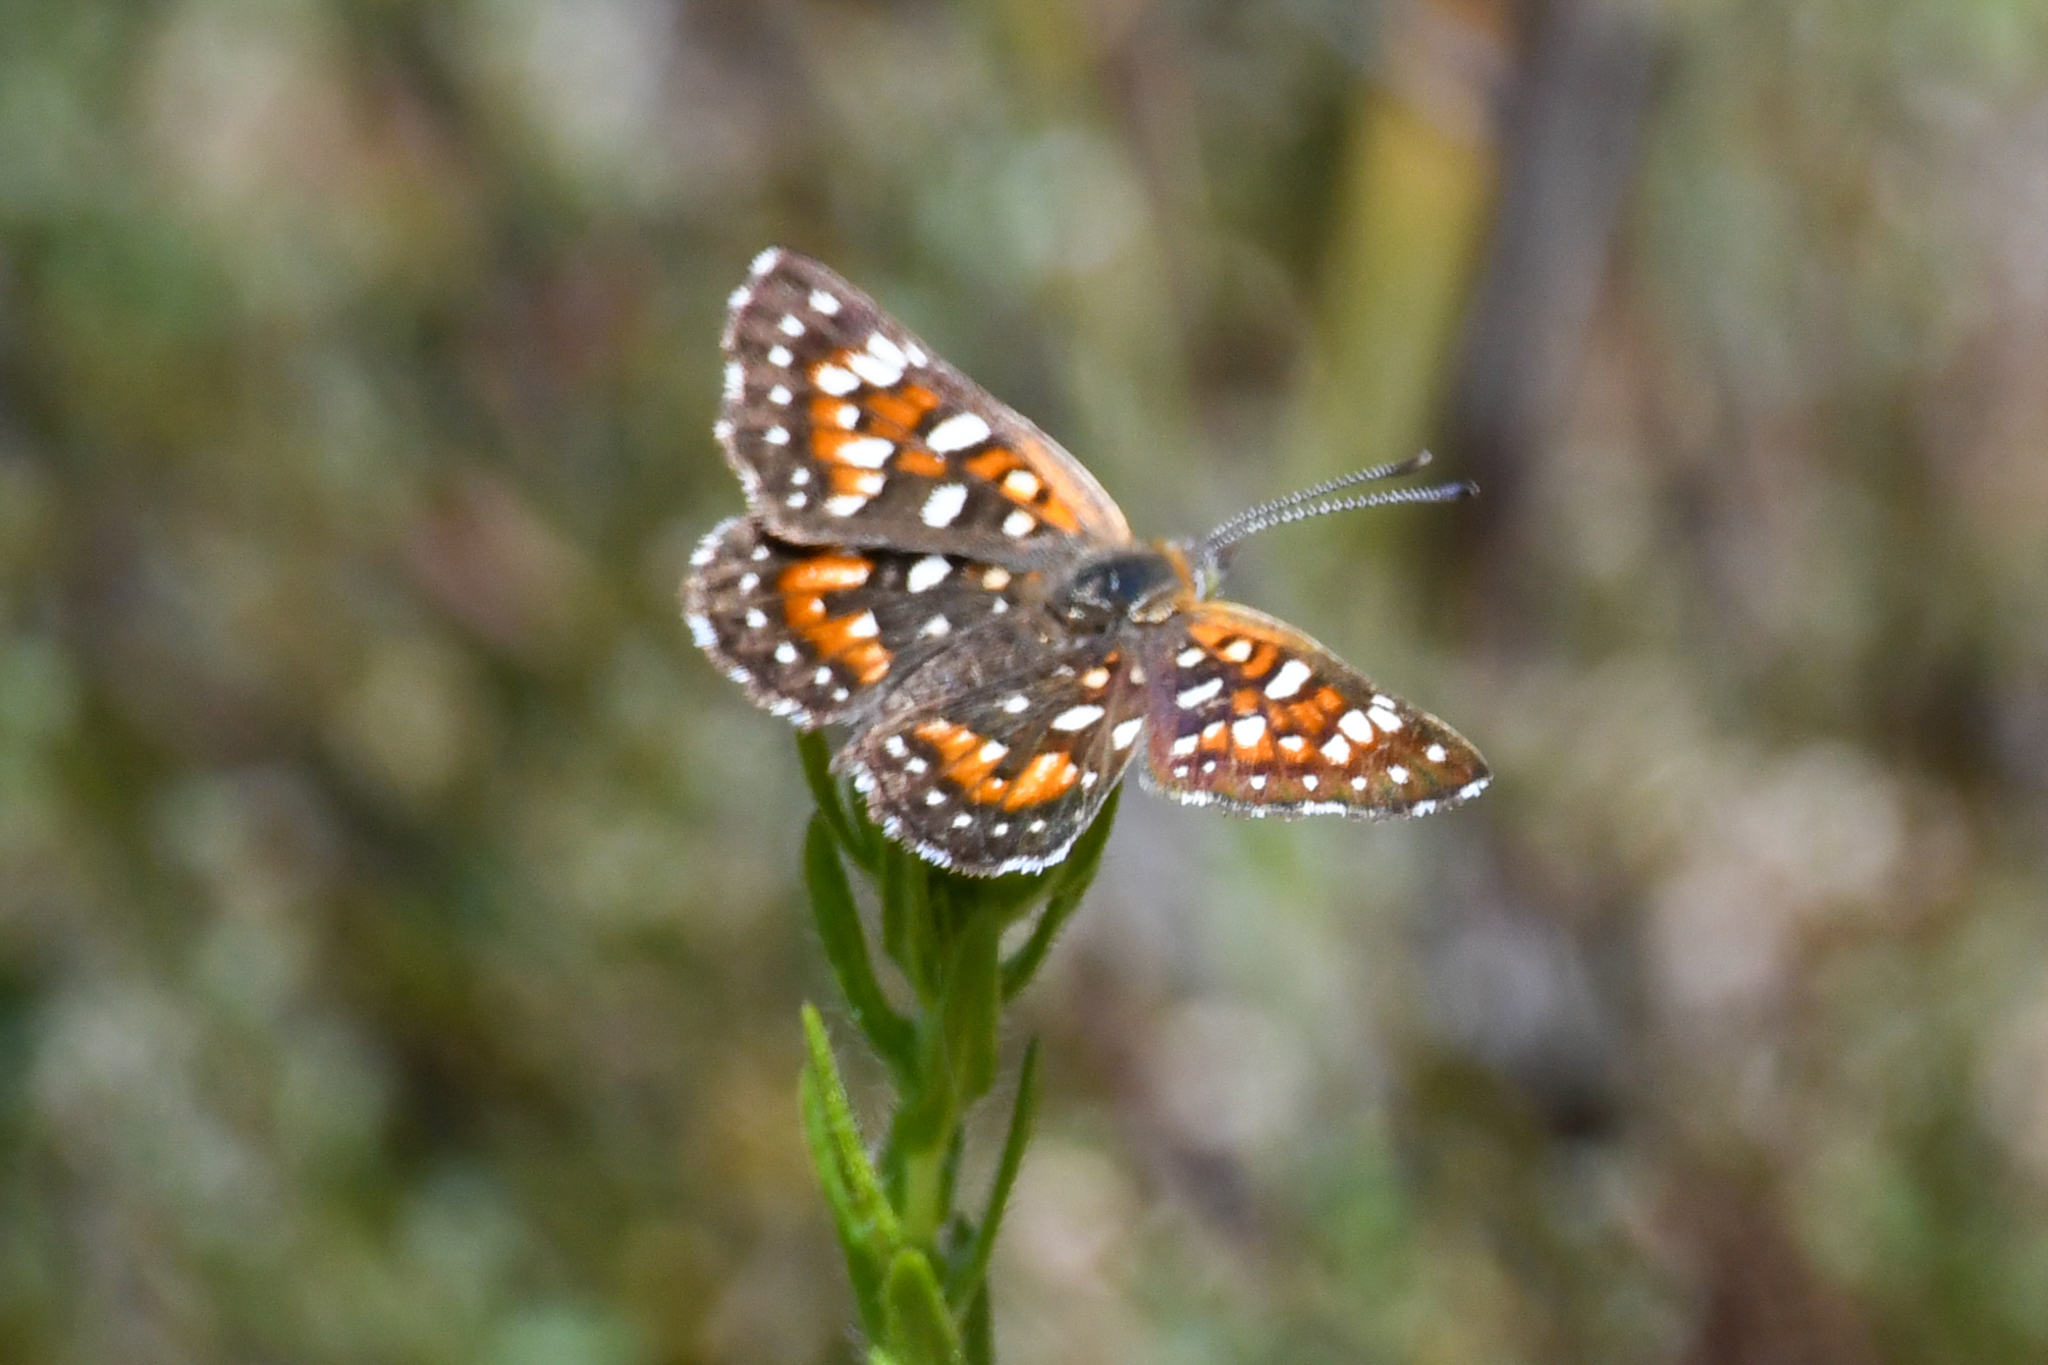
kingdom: Animalia
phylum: Arthropoda
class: Insecta
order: Lepidoptera
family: Riodinidae
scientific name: Riodinidae
